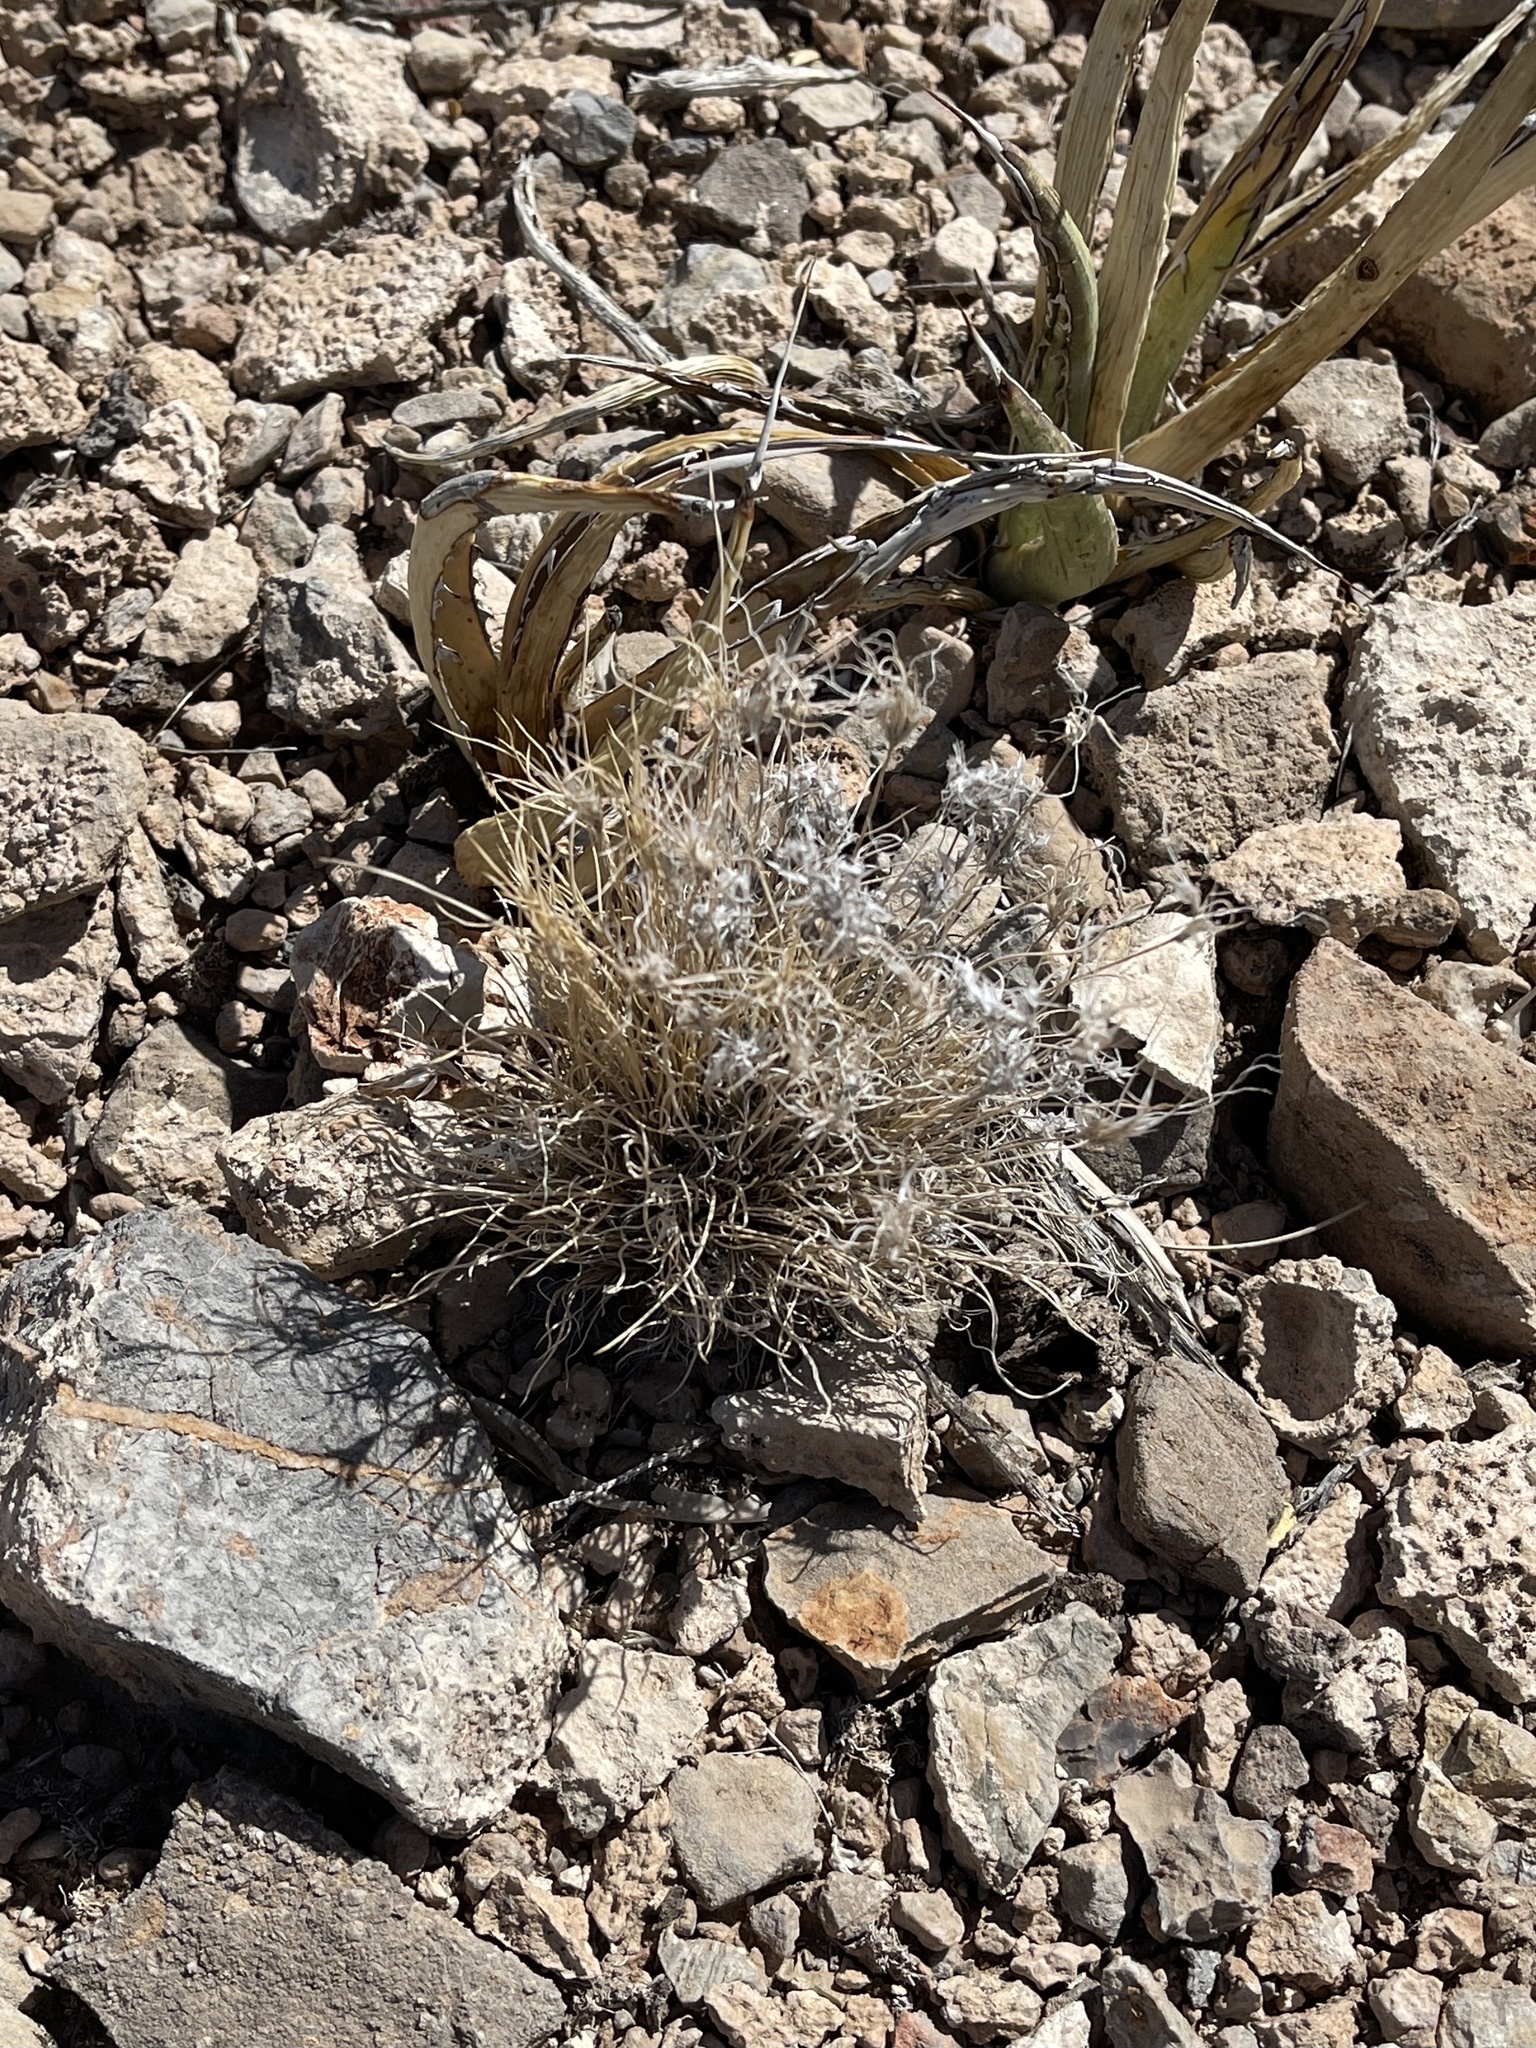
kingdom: Plantae
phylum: Tracheophyta
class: Liliopsida
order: Poales
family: Poaceae
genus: Dasyochloa
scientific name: Dasyochloa pulchella
